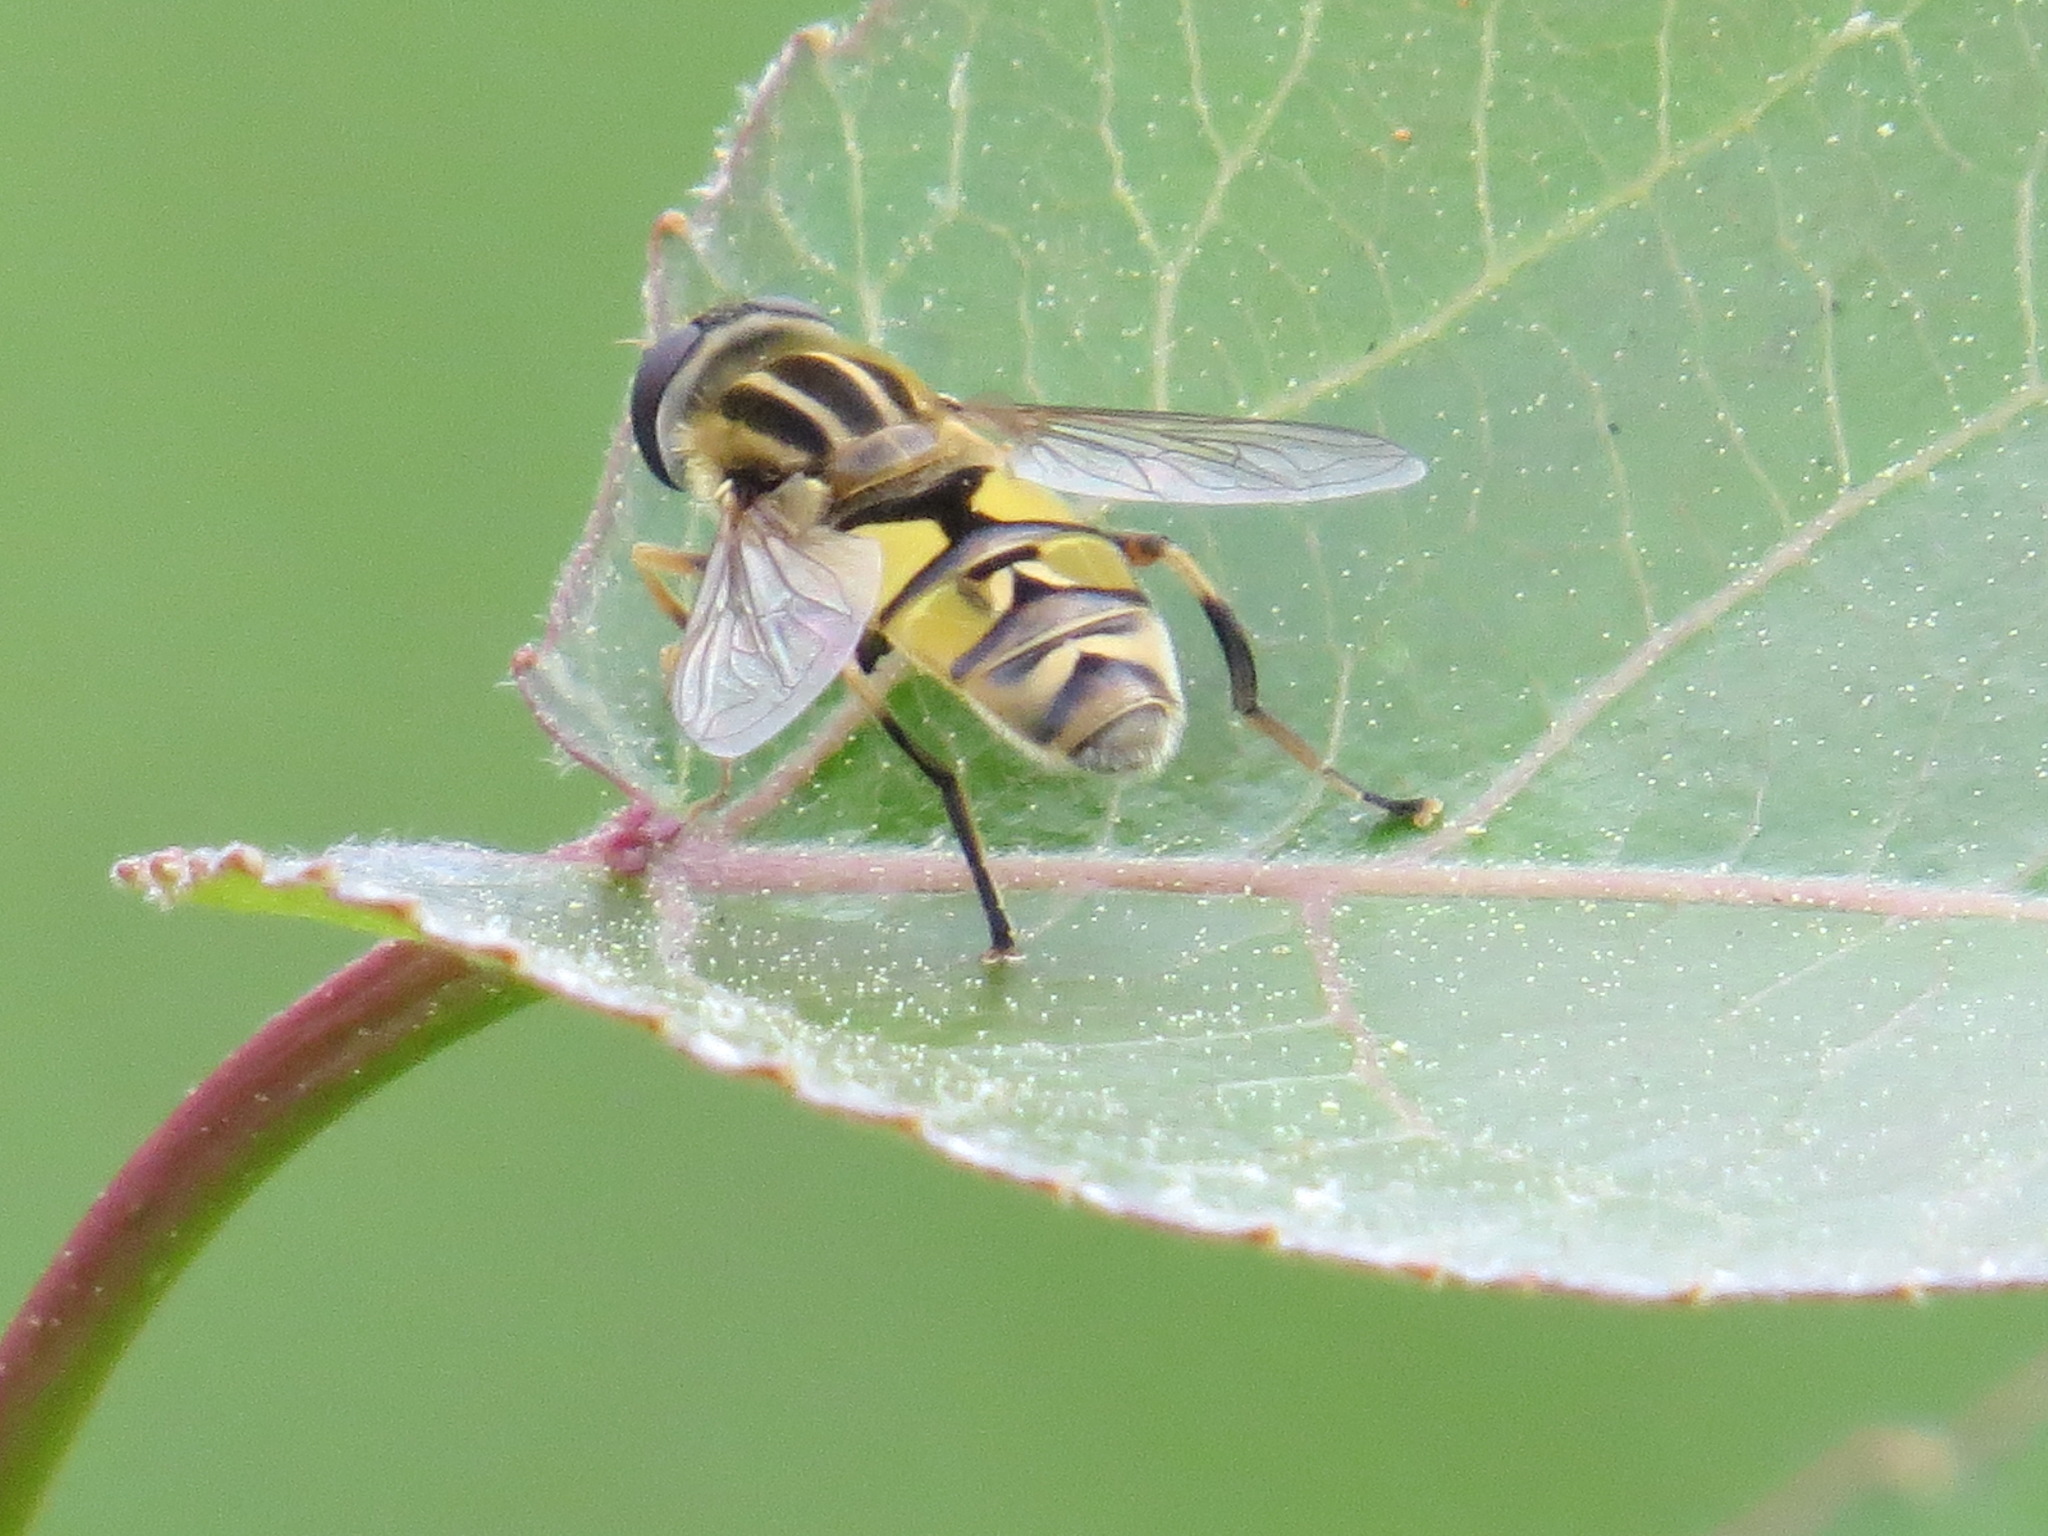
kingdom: Animalia
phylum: Arthropoda
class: Insecta
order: Diptera
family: Syrphidae
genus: Helophilus
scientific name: Helophilus latifrons
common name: Broad-headed marsh fly
